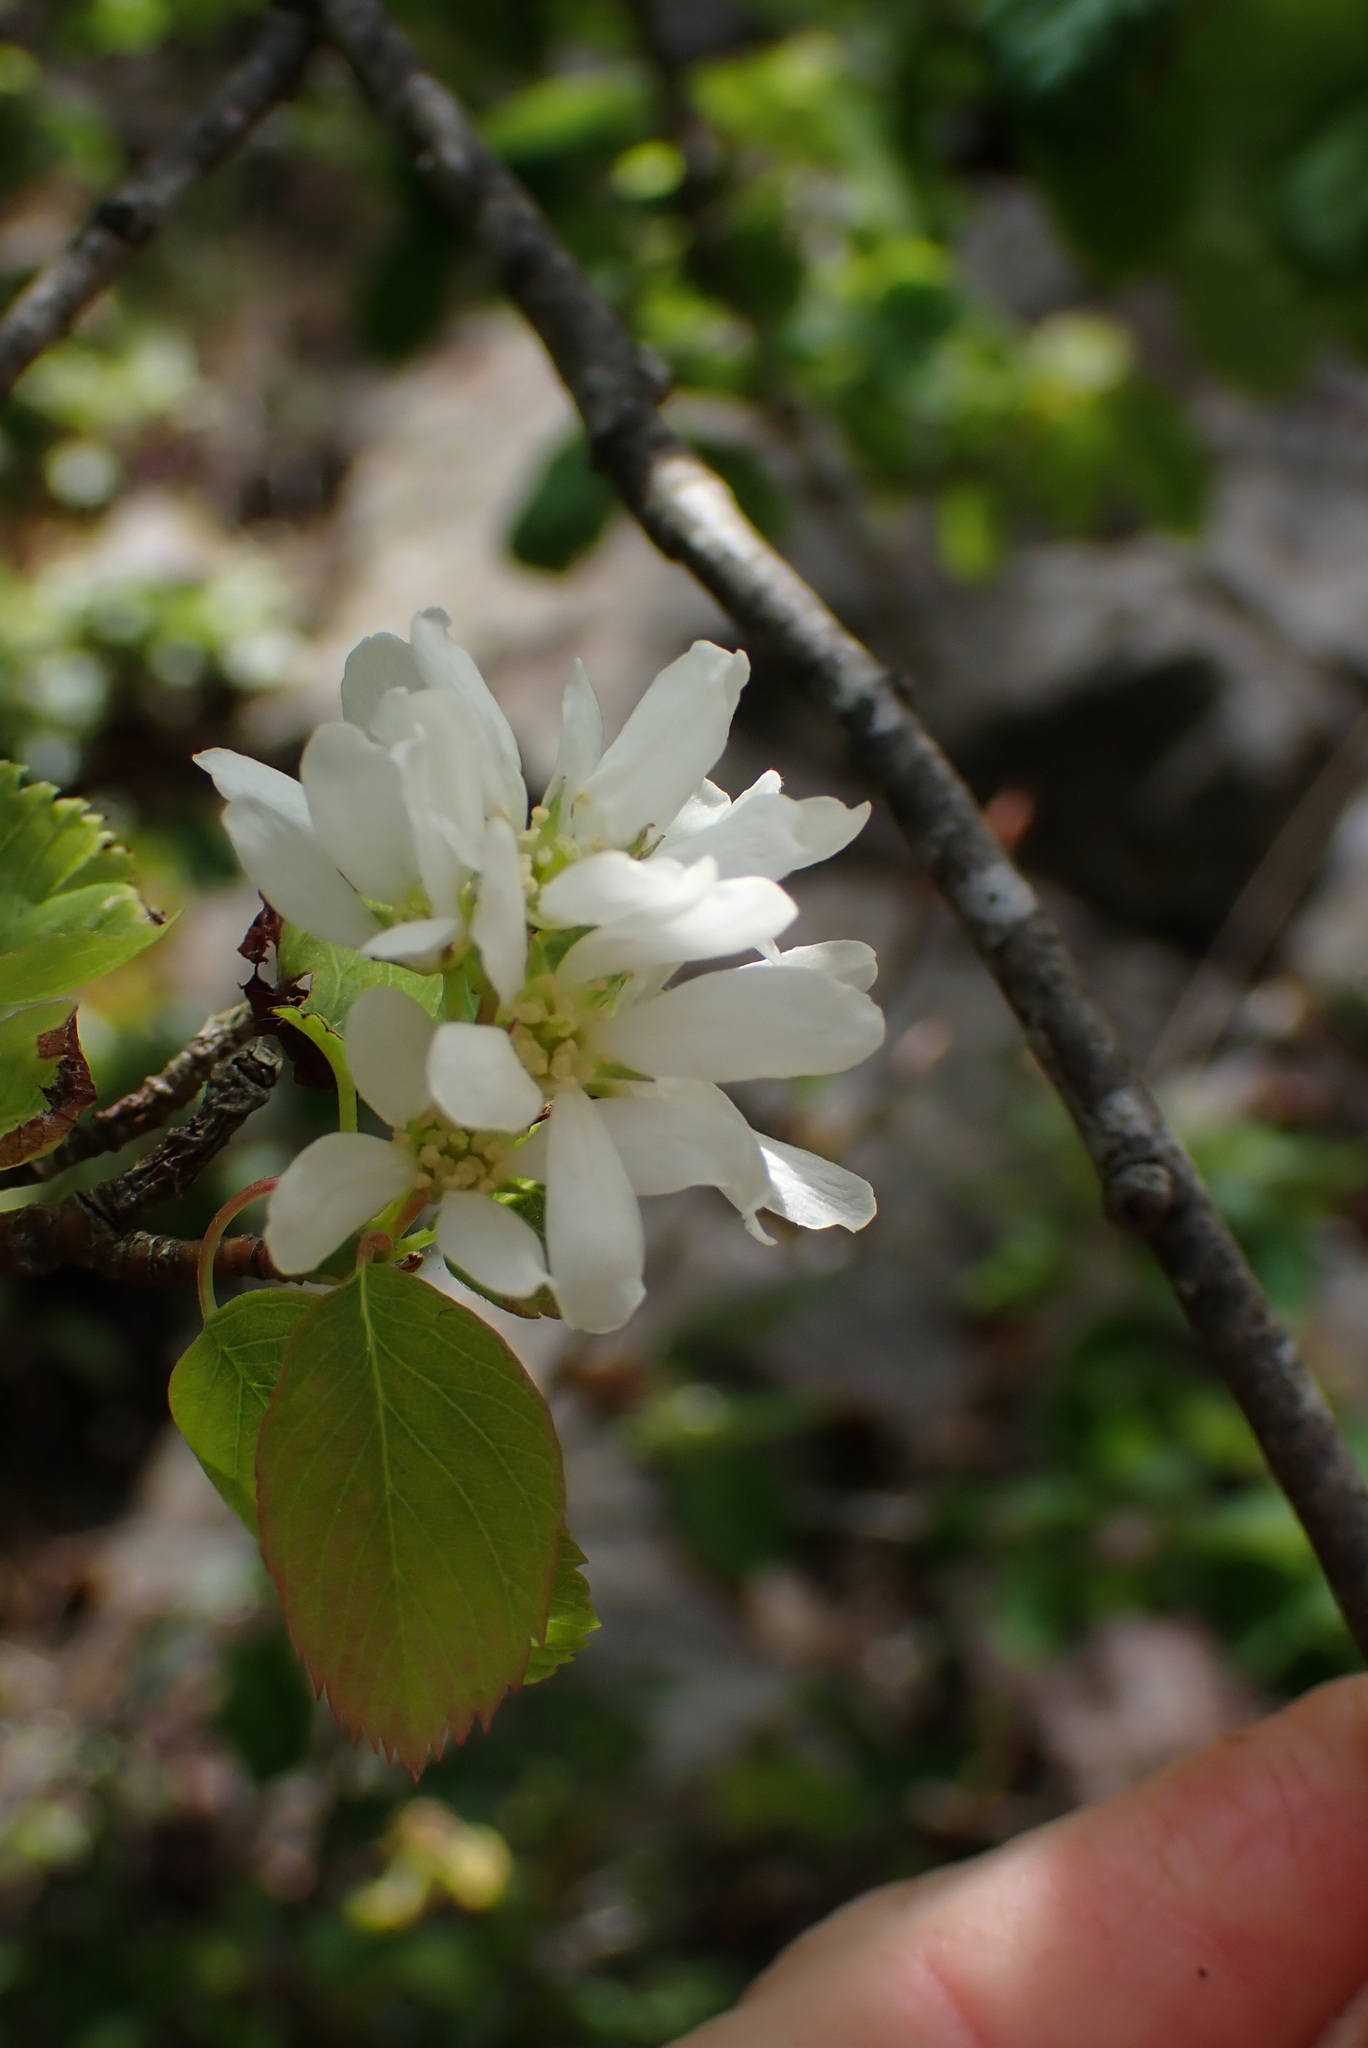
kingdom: Plantae
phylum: Tracheophyta
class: Magnoliopsida
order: Rosales
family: Rosaceae
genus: Amelanchier
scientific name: Amelanchier alnifolia
